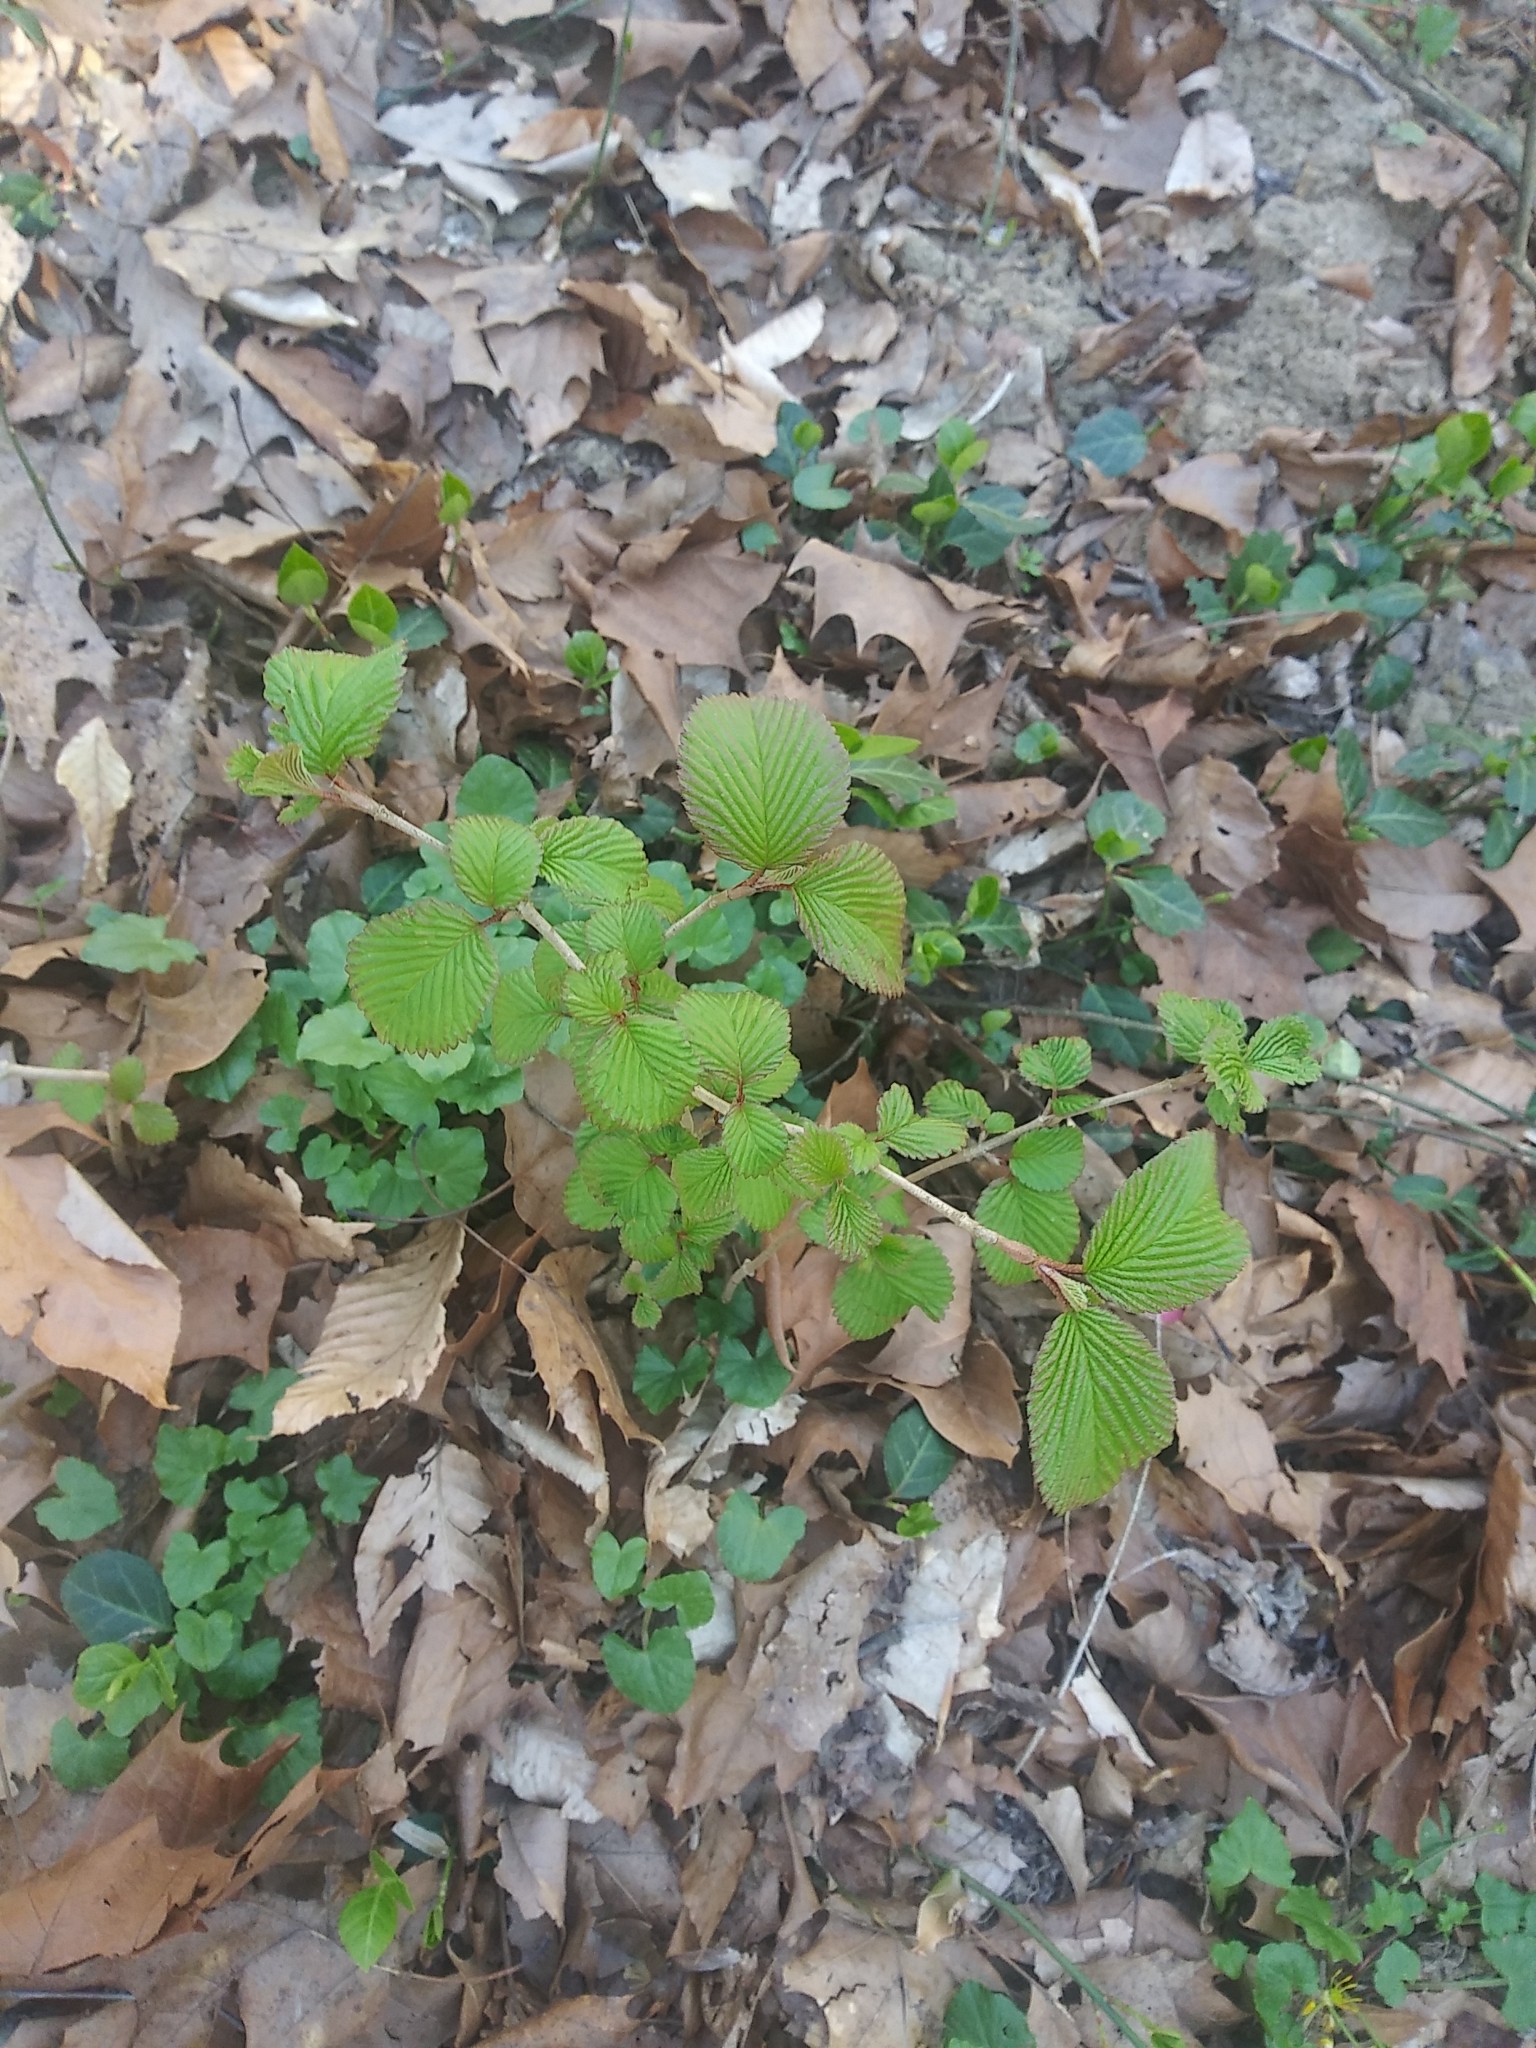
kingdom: Plantae
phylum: Tracheophyta
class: Magnoliopsida
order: Dipsacales
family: Viburnaceae
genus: Viburnum
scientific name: Viburnum plicatum
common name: Japanese snowball
